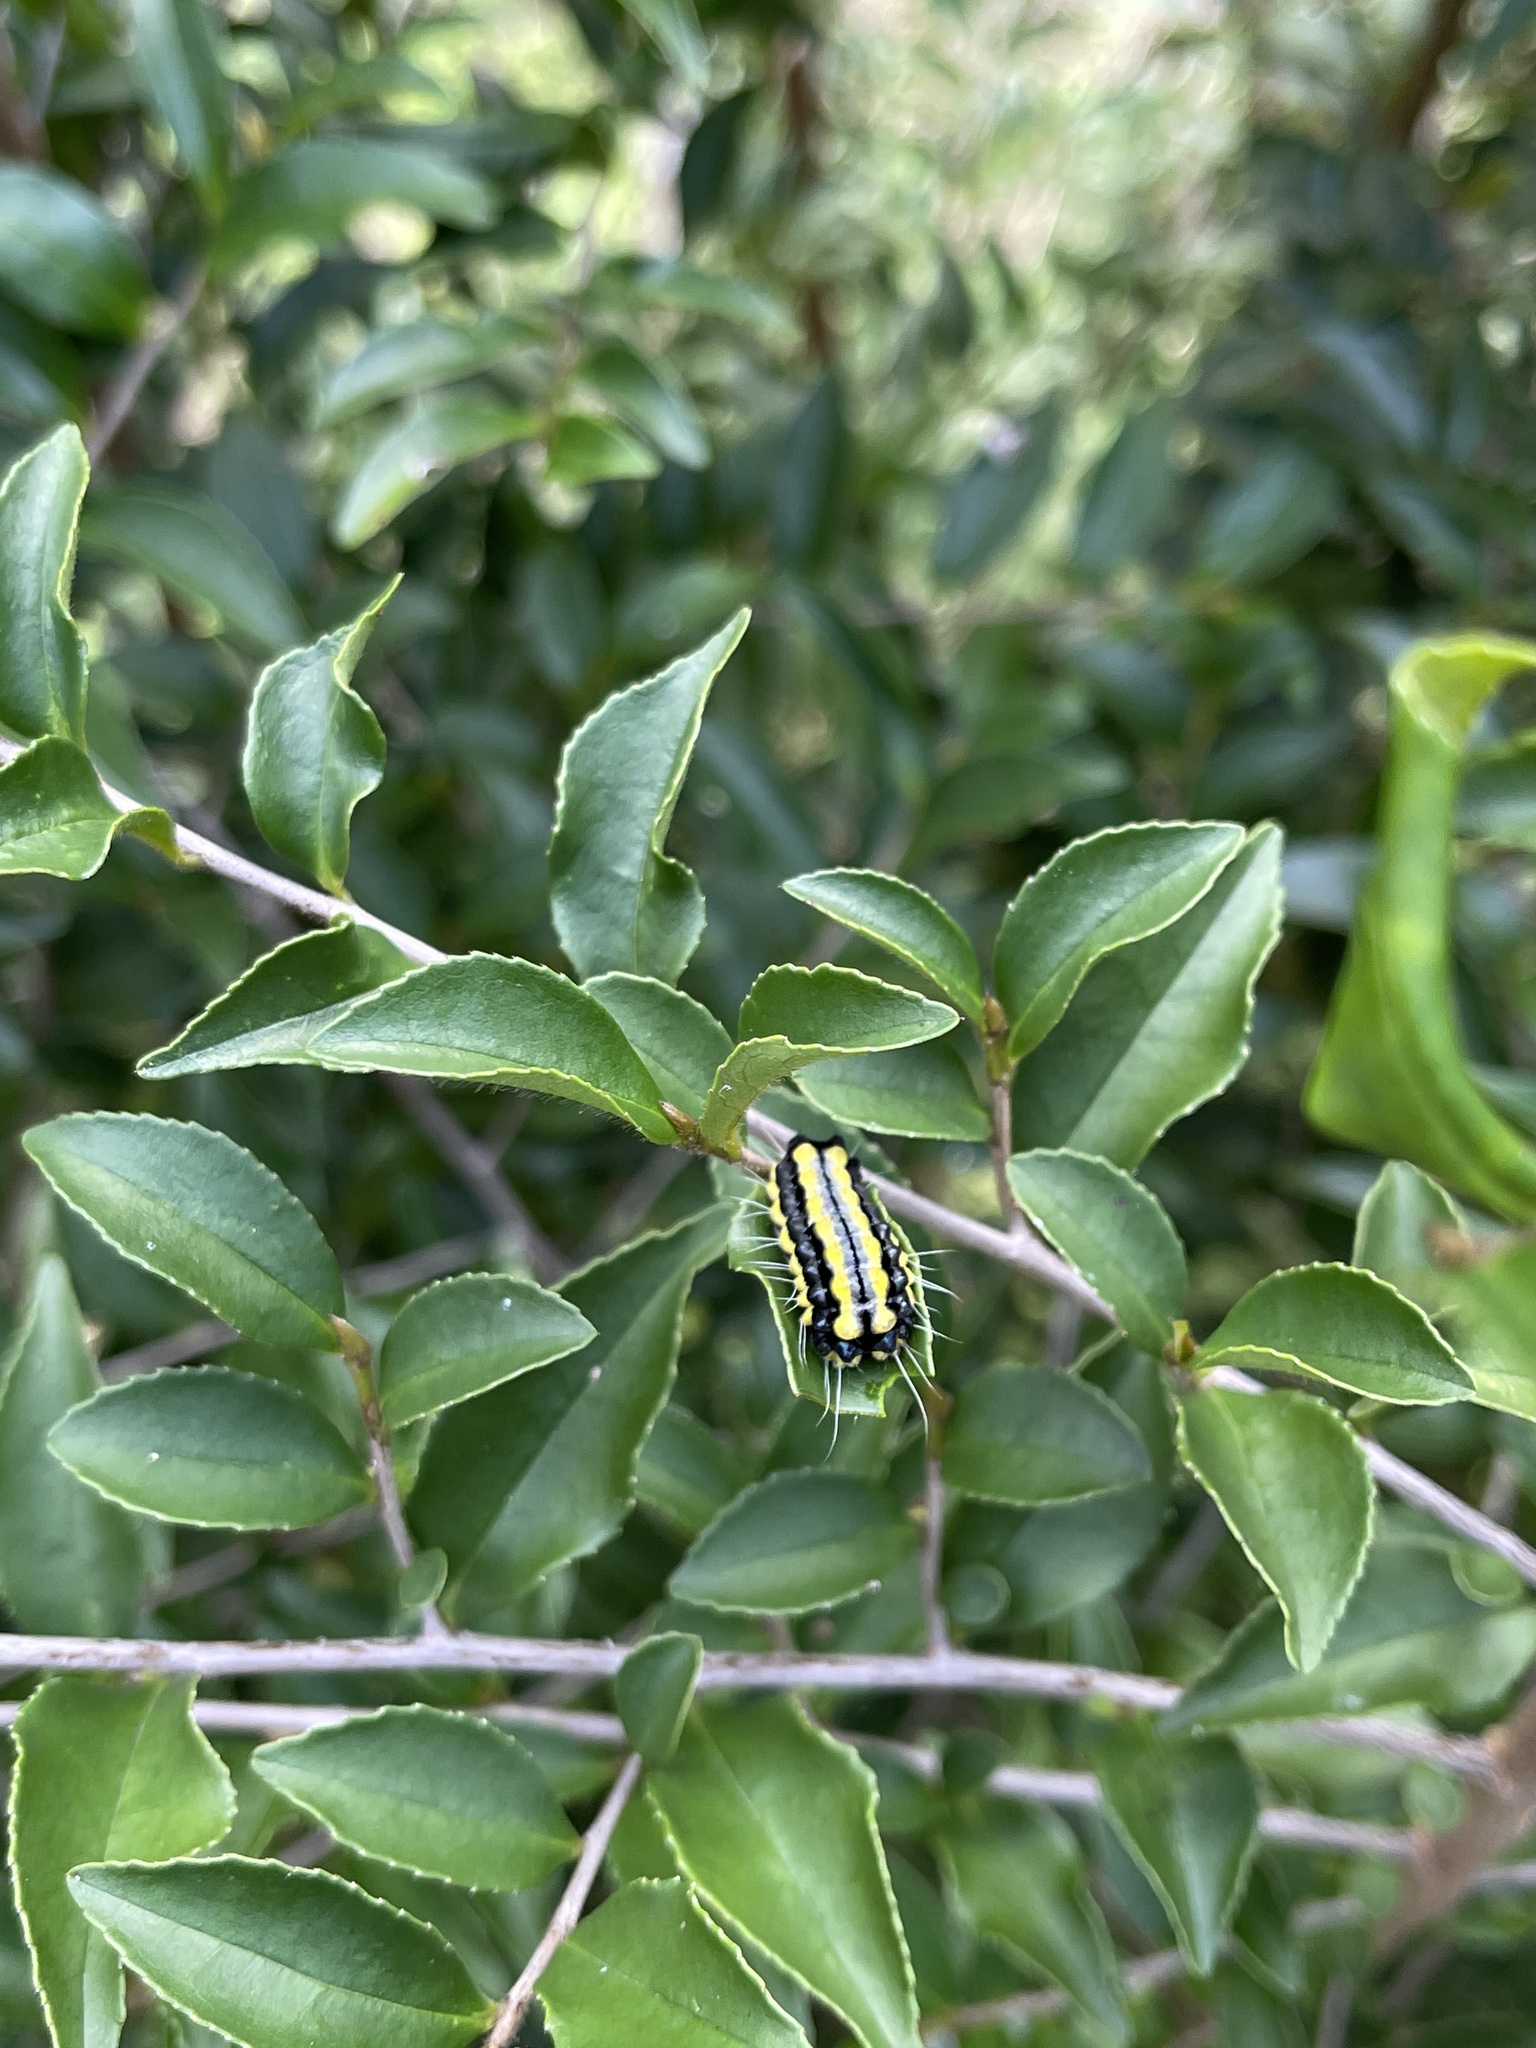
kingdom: Animalia
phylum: Arthropoda
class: Insecta
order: Lepidoptera
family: Zygaenidae
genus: Pidorus
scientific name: Pidorus glaucopis
